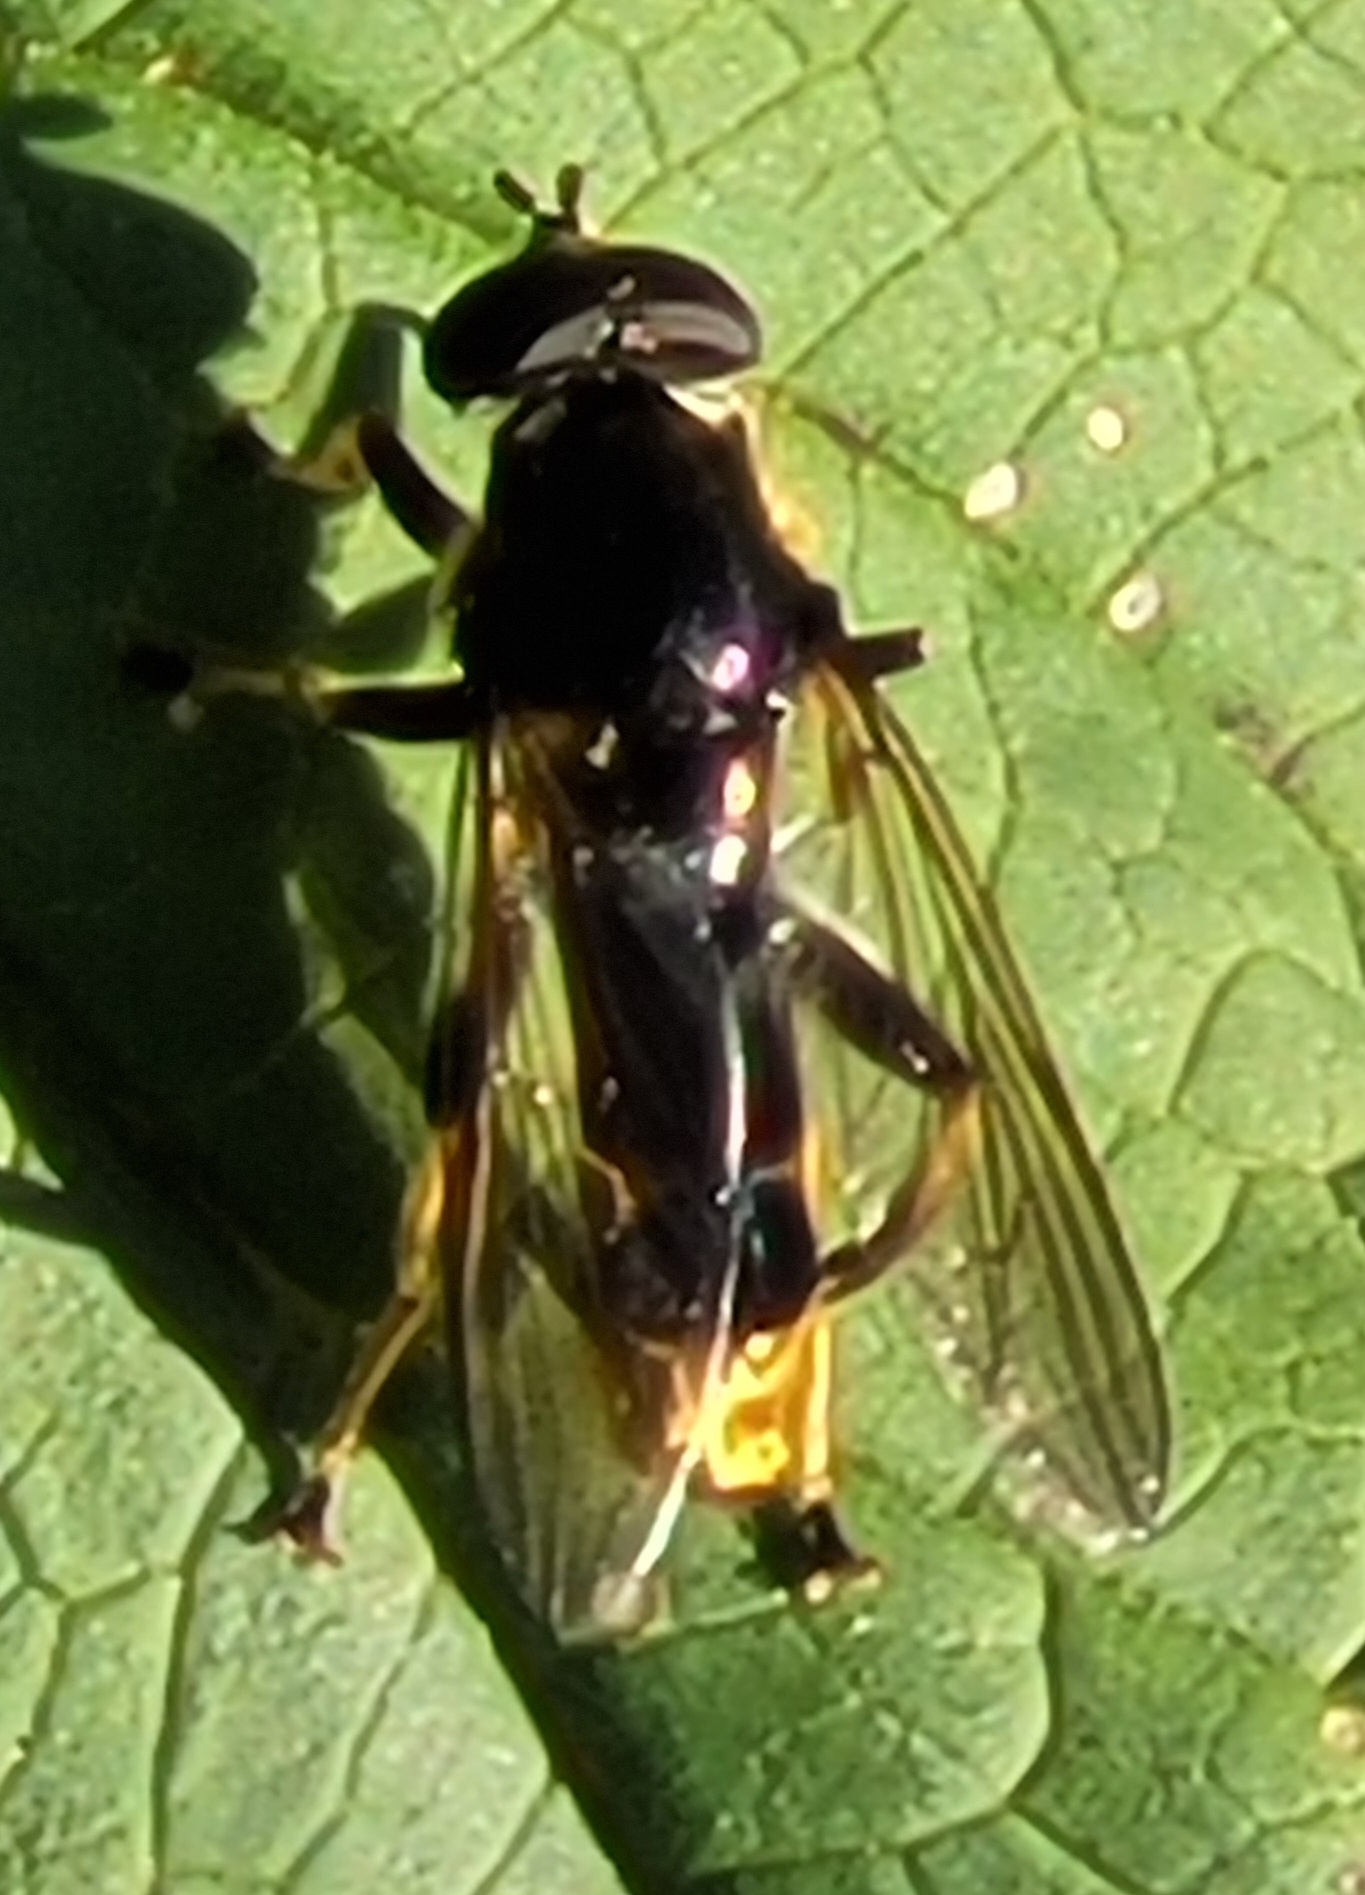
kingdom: Animalia
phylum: Arthropoda
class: Insecta
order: Diptera
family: Syrphidae
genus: Xylota
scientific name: Xylota sylvarum
